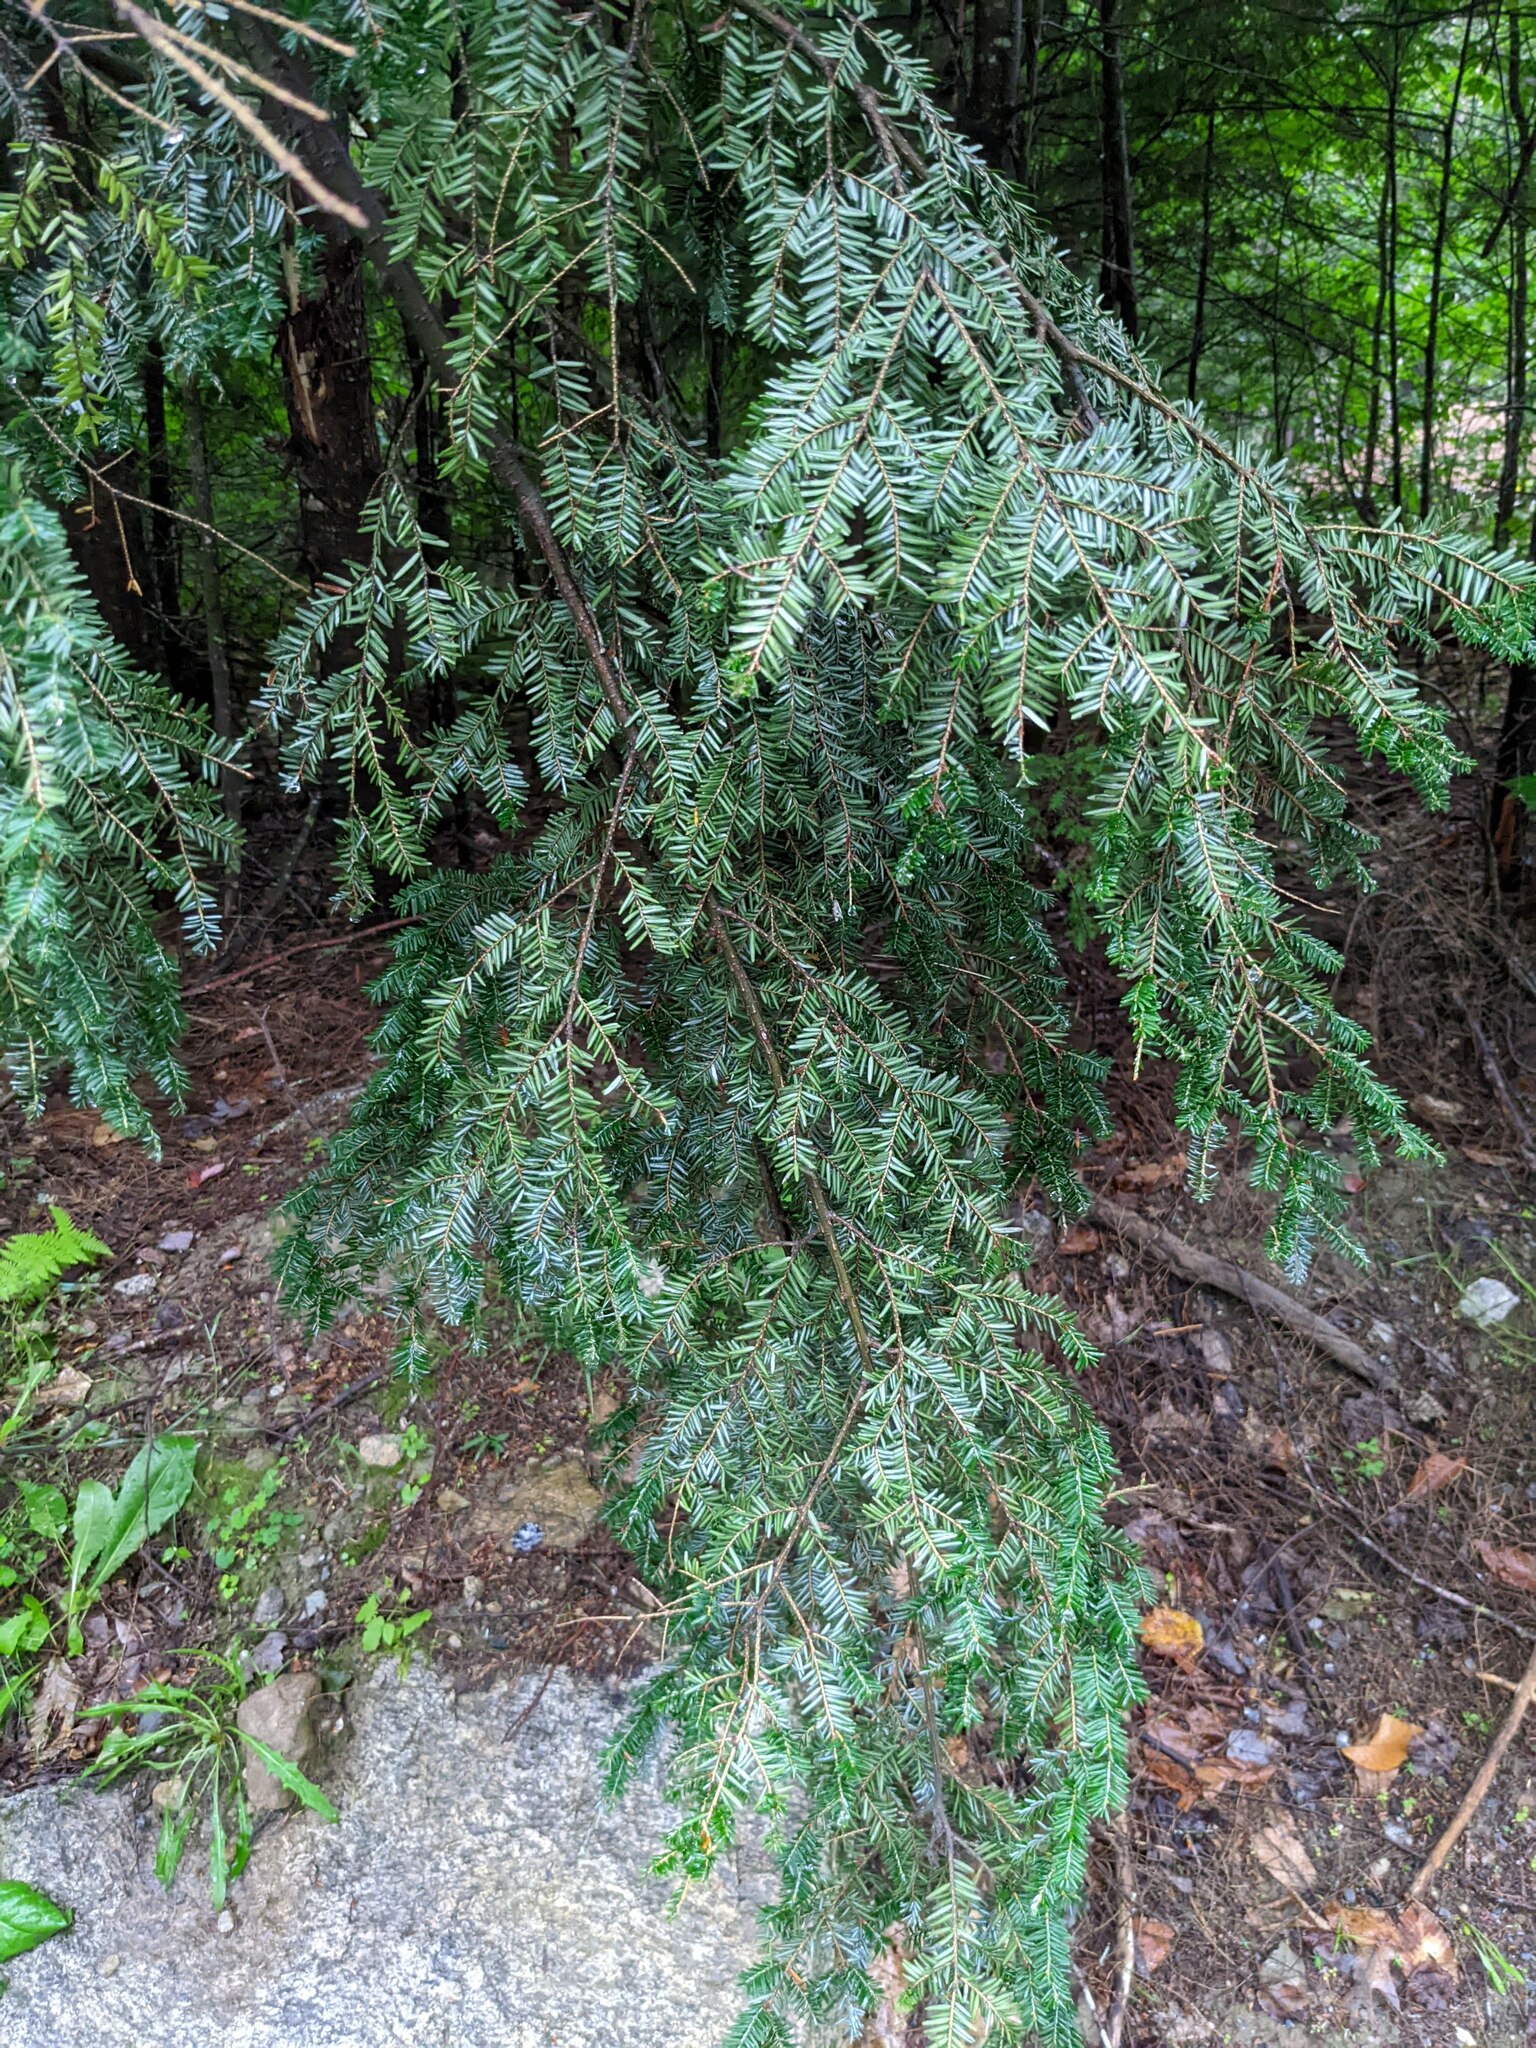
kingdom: Plantae
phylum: Tracheophyta
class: Pinopsida
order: Pinales
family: Pinaceae
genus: Tsuga
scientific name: Tsuga canadensis
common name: Eastern hemlock
